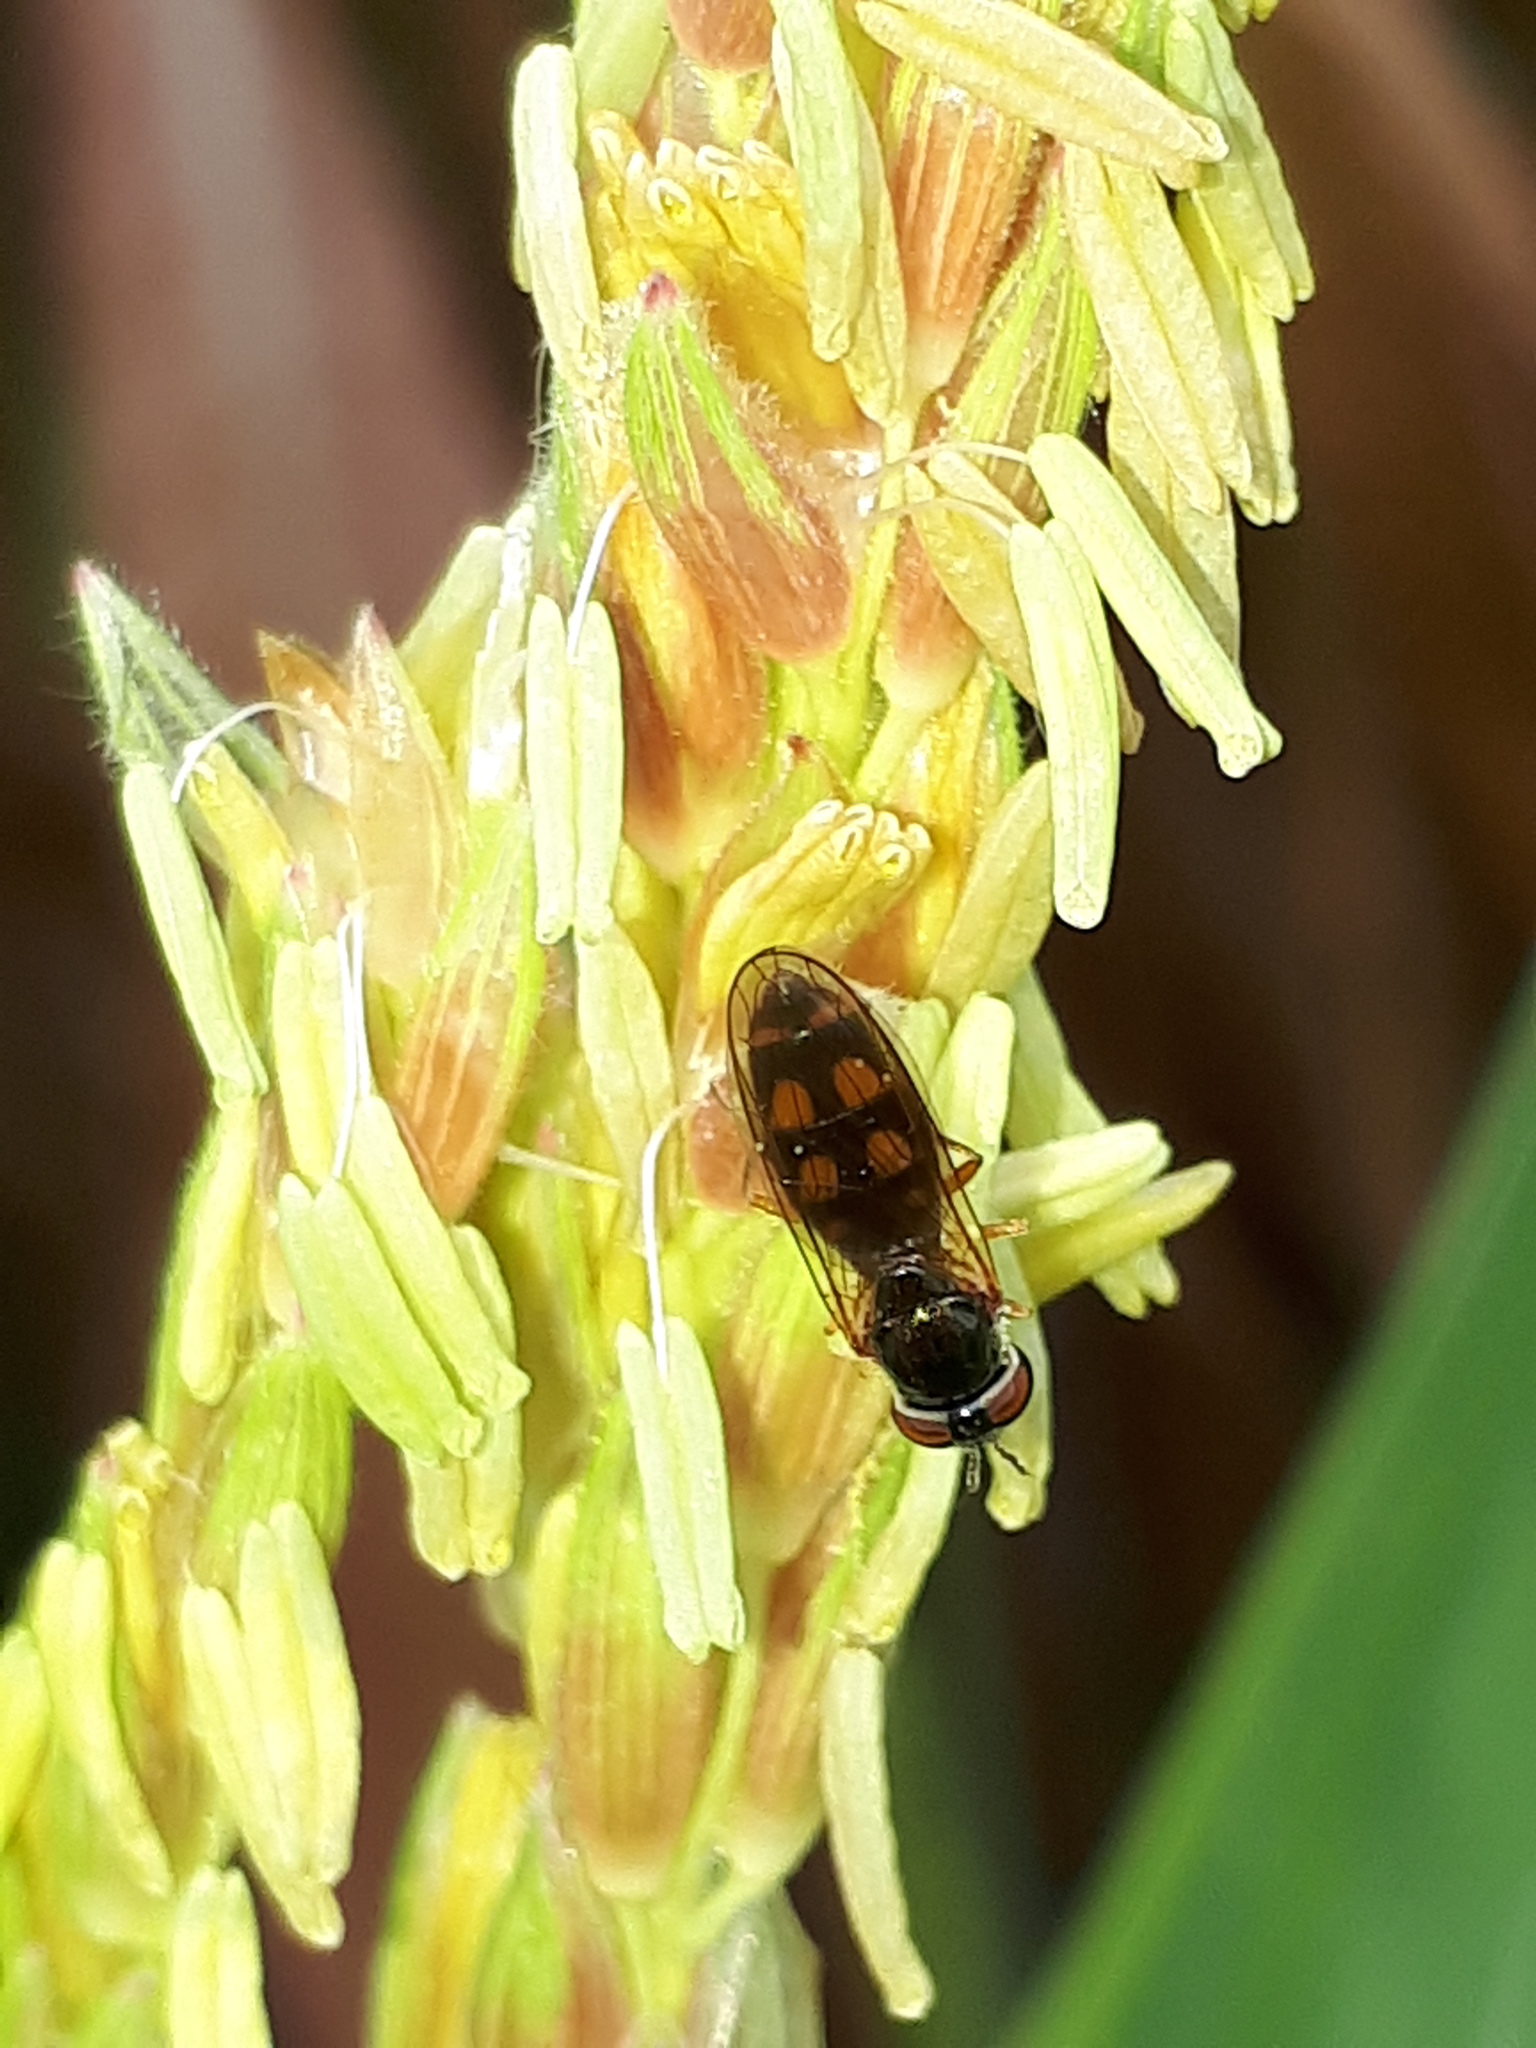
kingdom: Animalia
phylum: Arthropoda
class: Insecta
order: Diptera
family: Syrphidae
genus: Melanostoma
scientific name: Melanostoma mellina
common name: Hover fly
